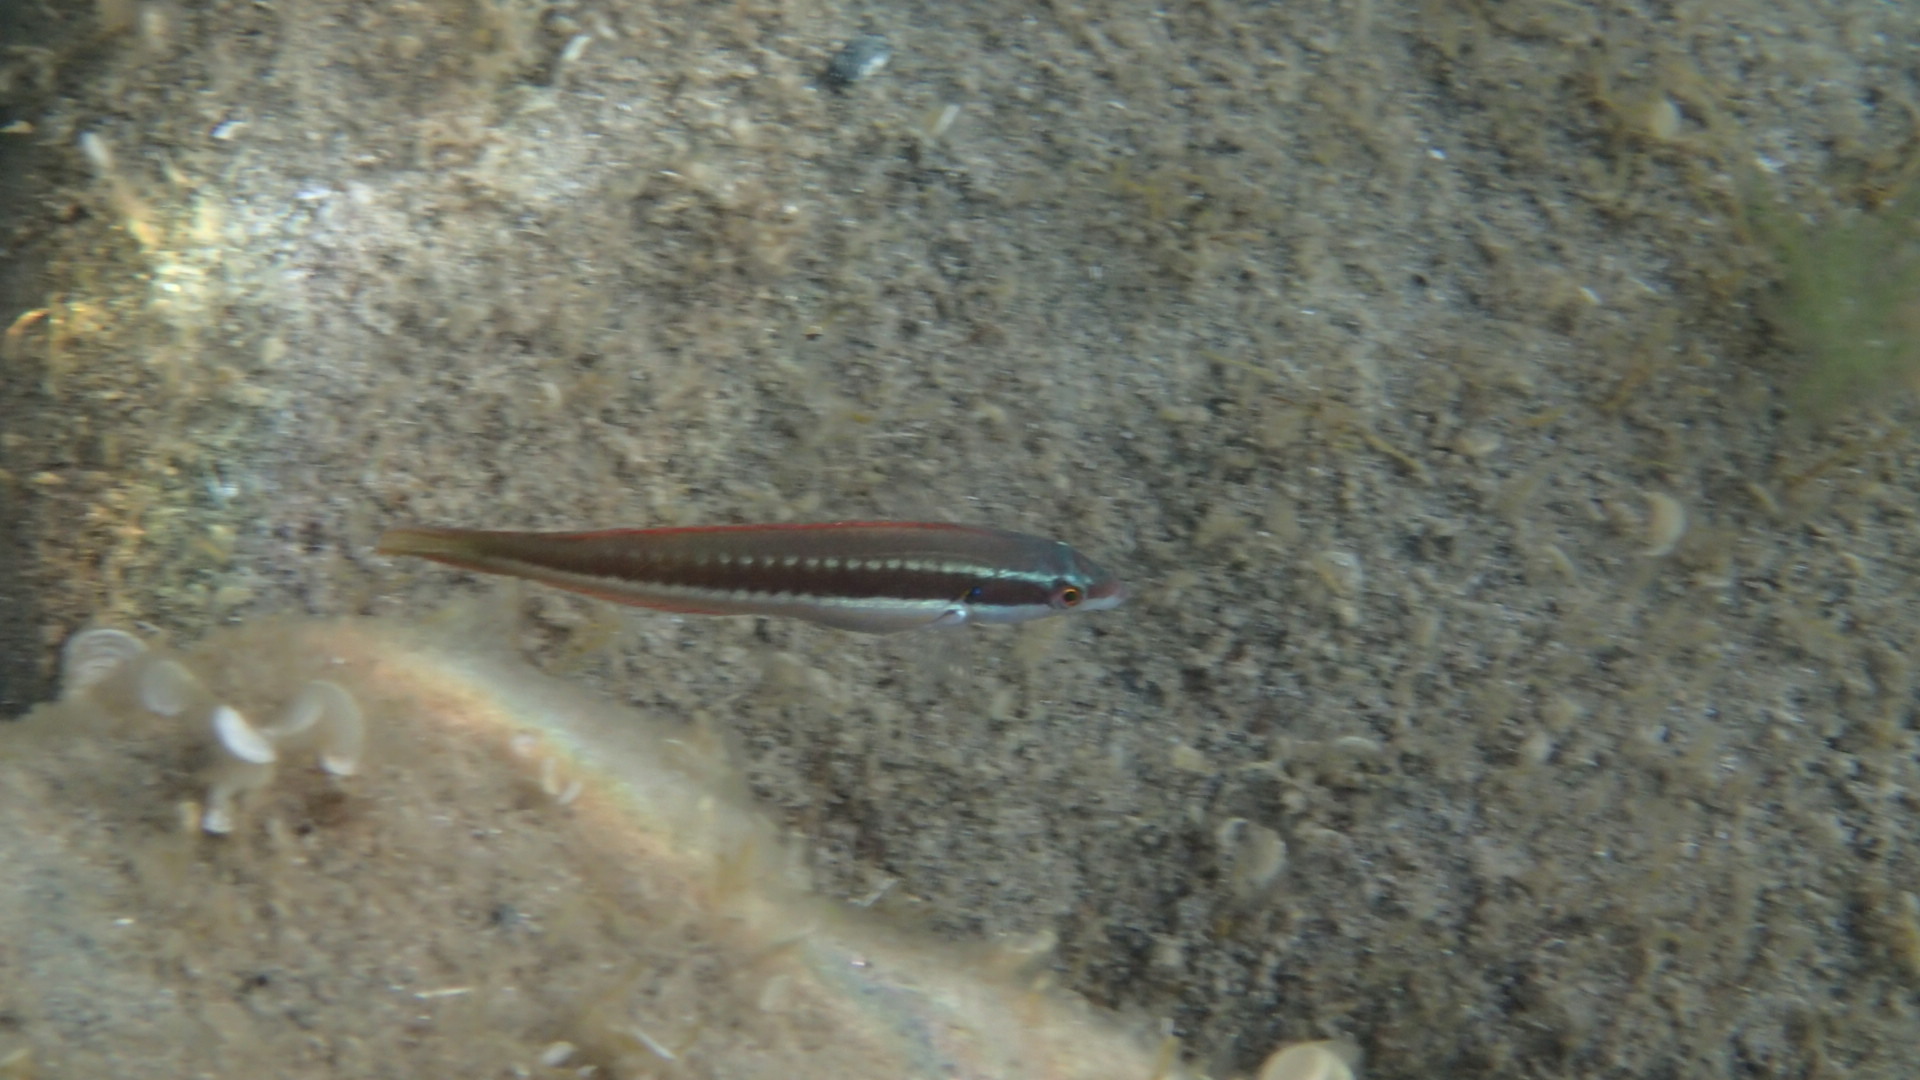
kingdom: Animalia
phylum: Chordata
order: Perciformes
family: Labridae
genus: Coris
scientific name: Coris julis
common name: Rainbow wrasse
